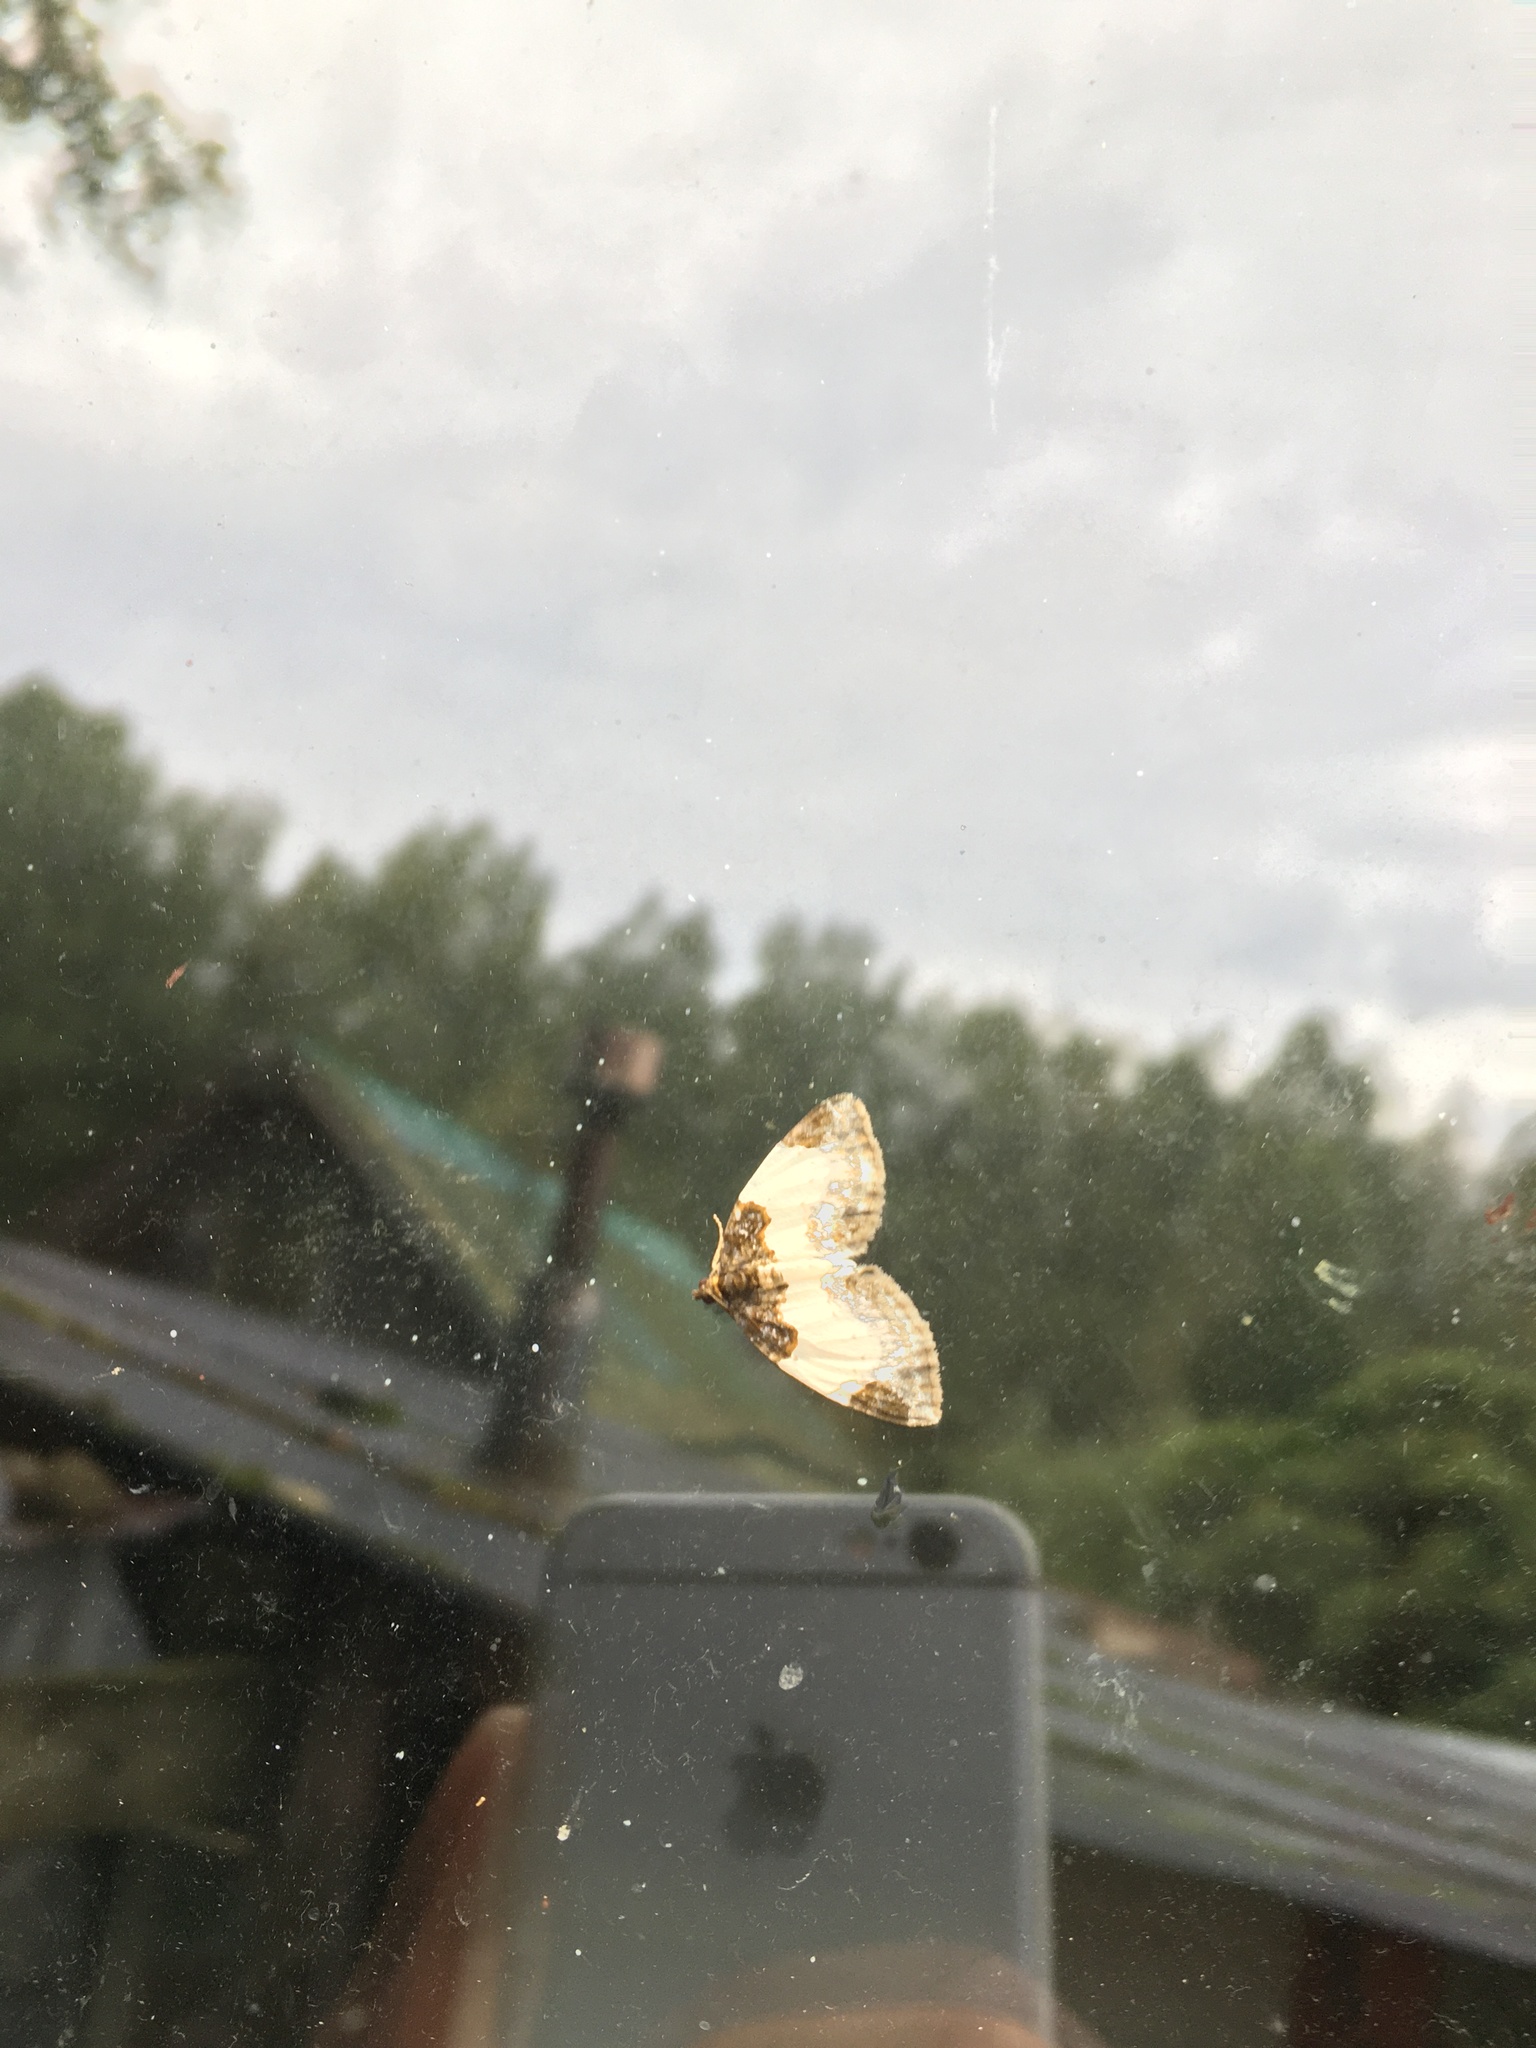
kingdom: Animalia
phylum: Arthropoda
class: Insecta
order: Lepidoptera
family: Geometridae
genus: Mesoleuca
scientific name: Mesoleuca albicillata
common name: Beautiful carpet
